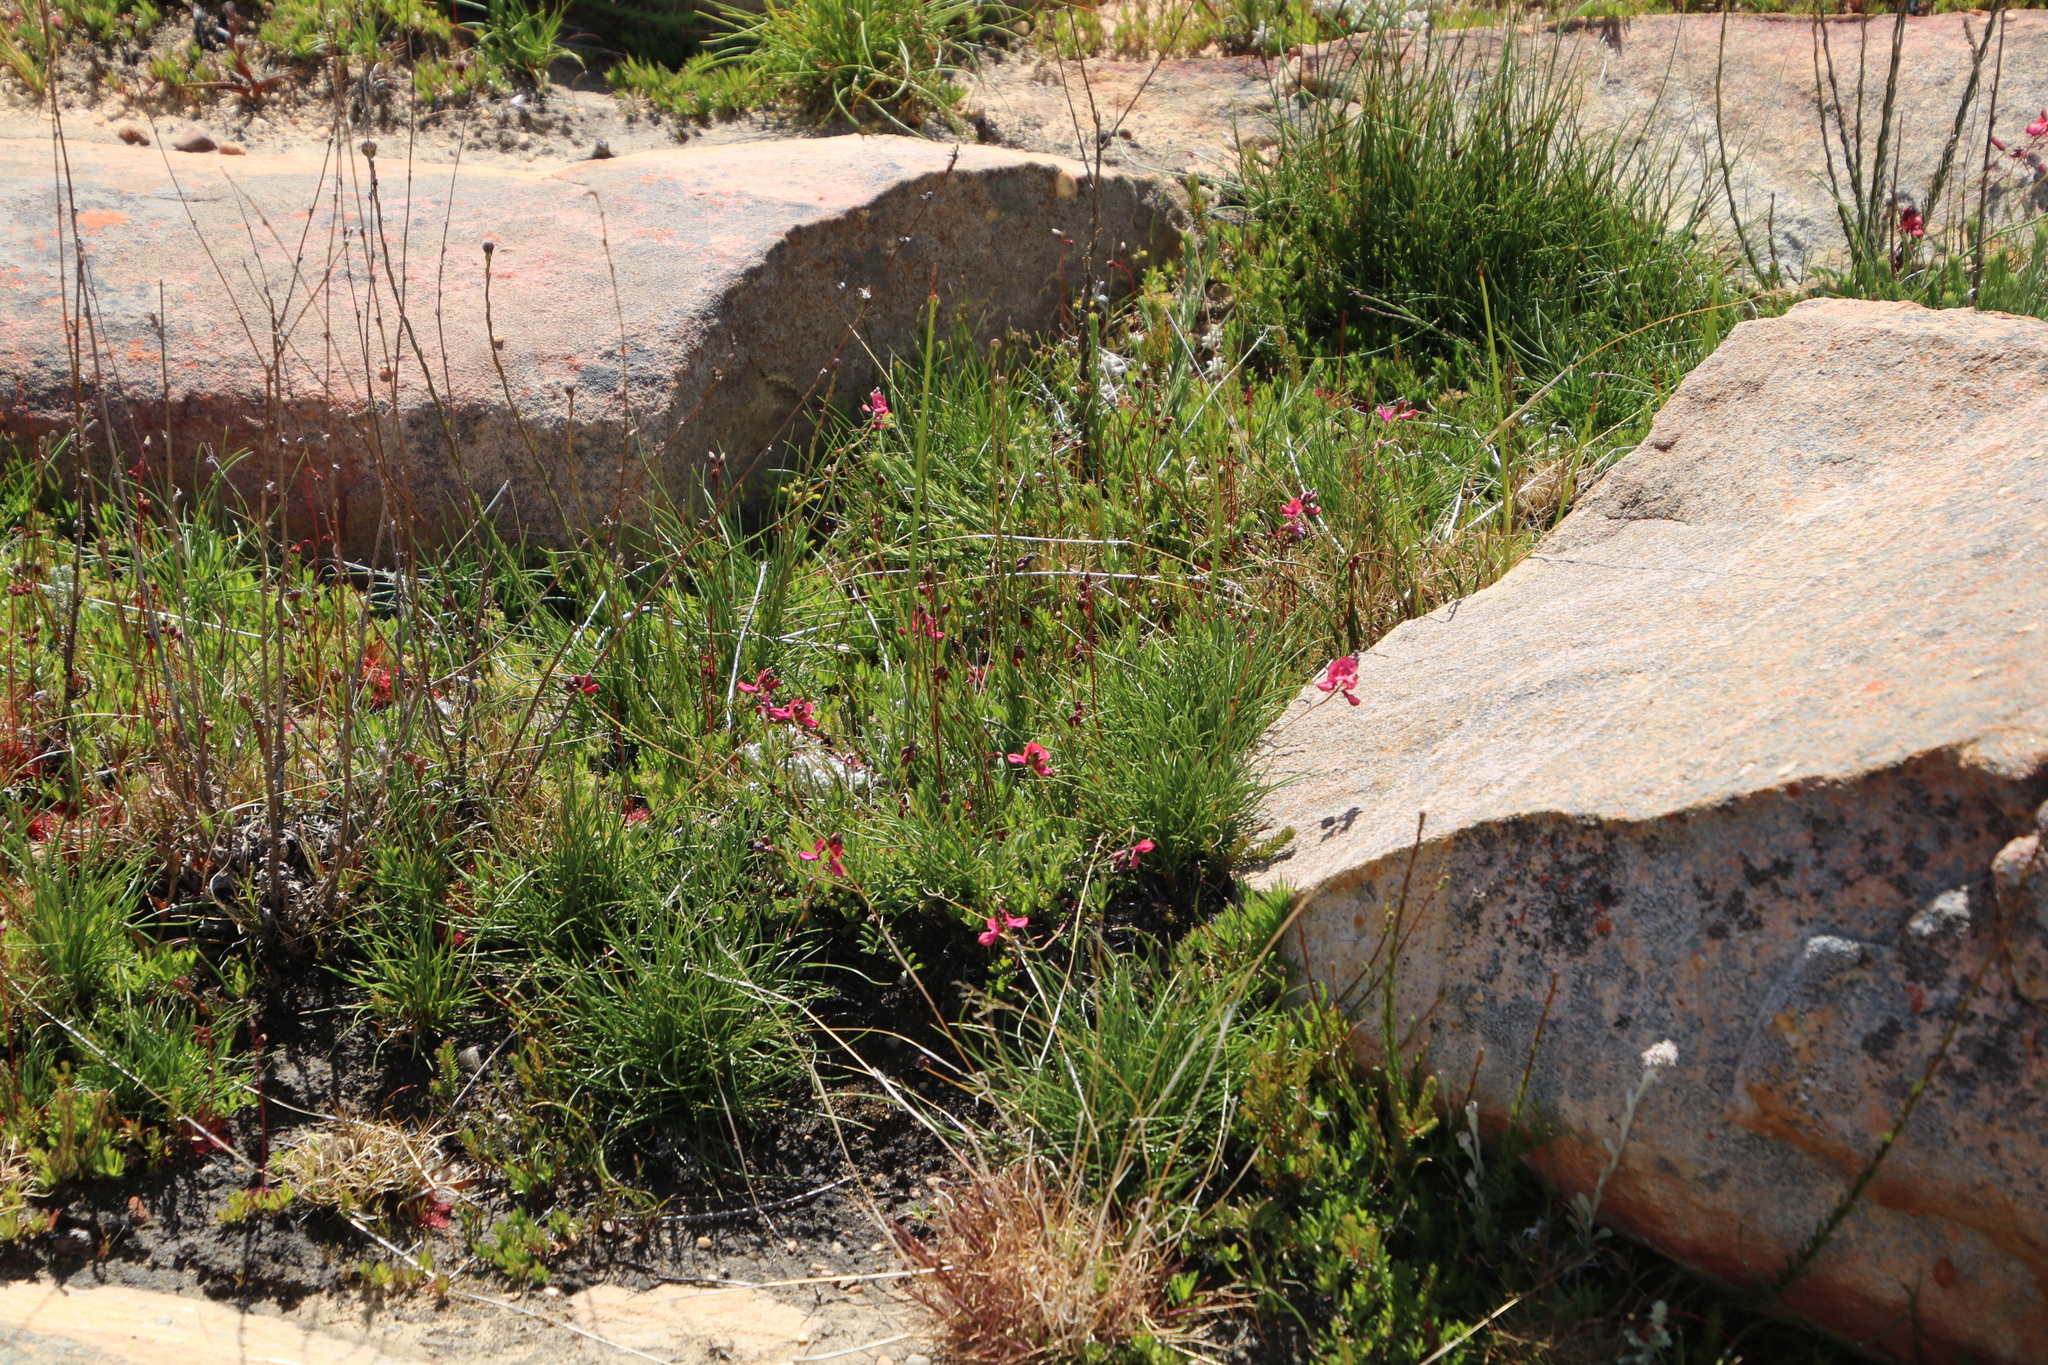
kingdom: Plantae
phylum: Tracheophyta
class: Magnoliopsida
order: Fabales
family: Fabaceae
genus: Indigofera
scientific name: Indigofera capillaris
